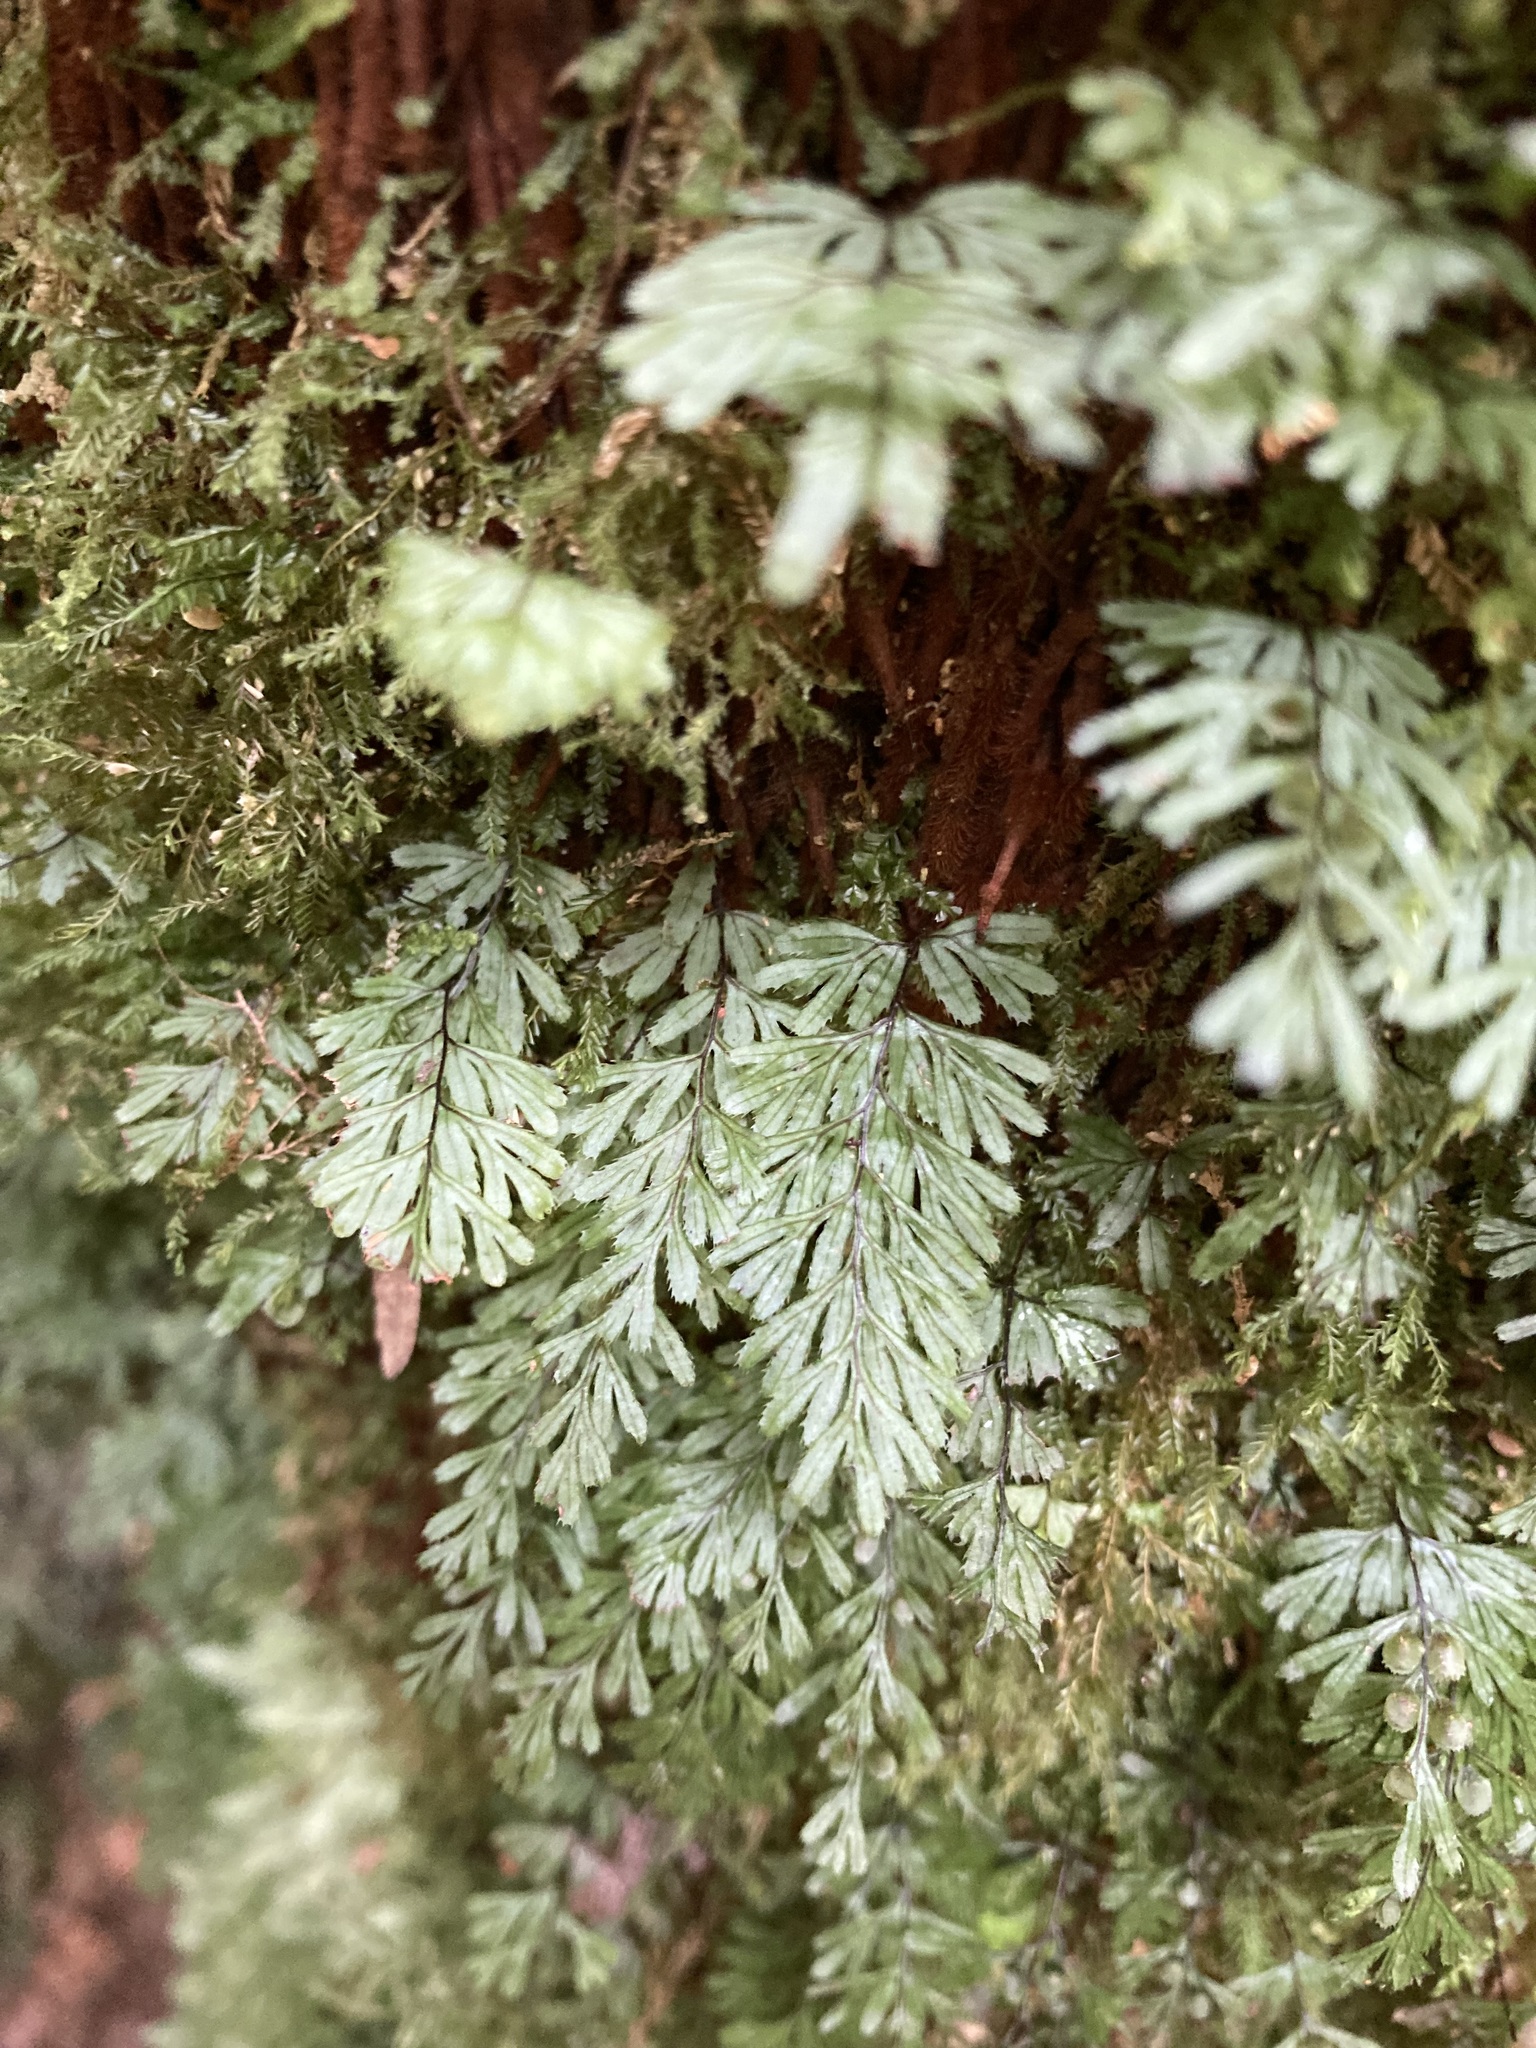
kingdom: Plantae
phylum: Tracheophyta
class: Polypodiopsida
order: Hymenophyllales
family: Hymenophyllaceae
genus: Hymenophyllum
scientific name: Hymenophyllum revolutum
